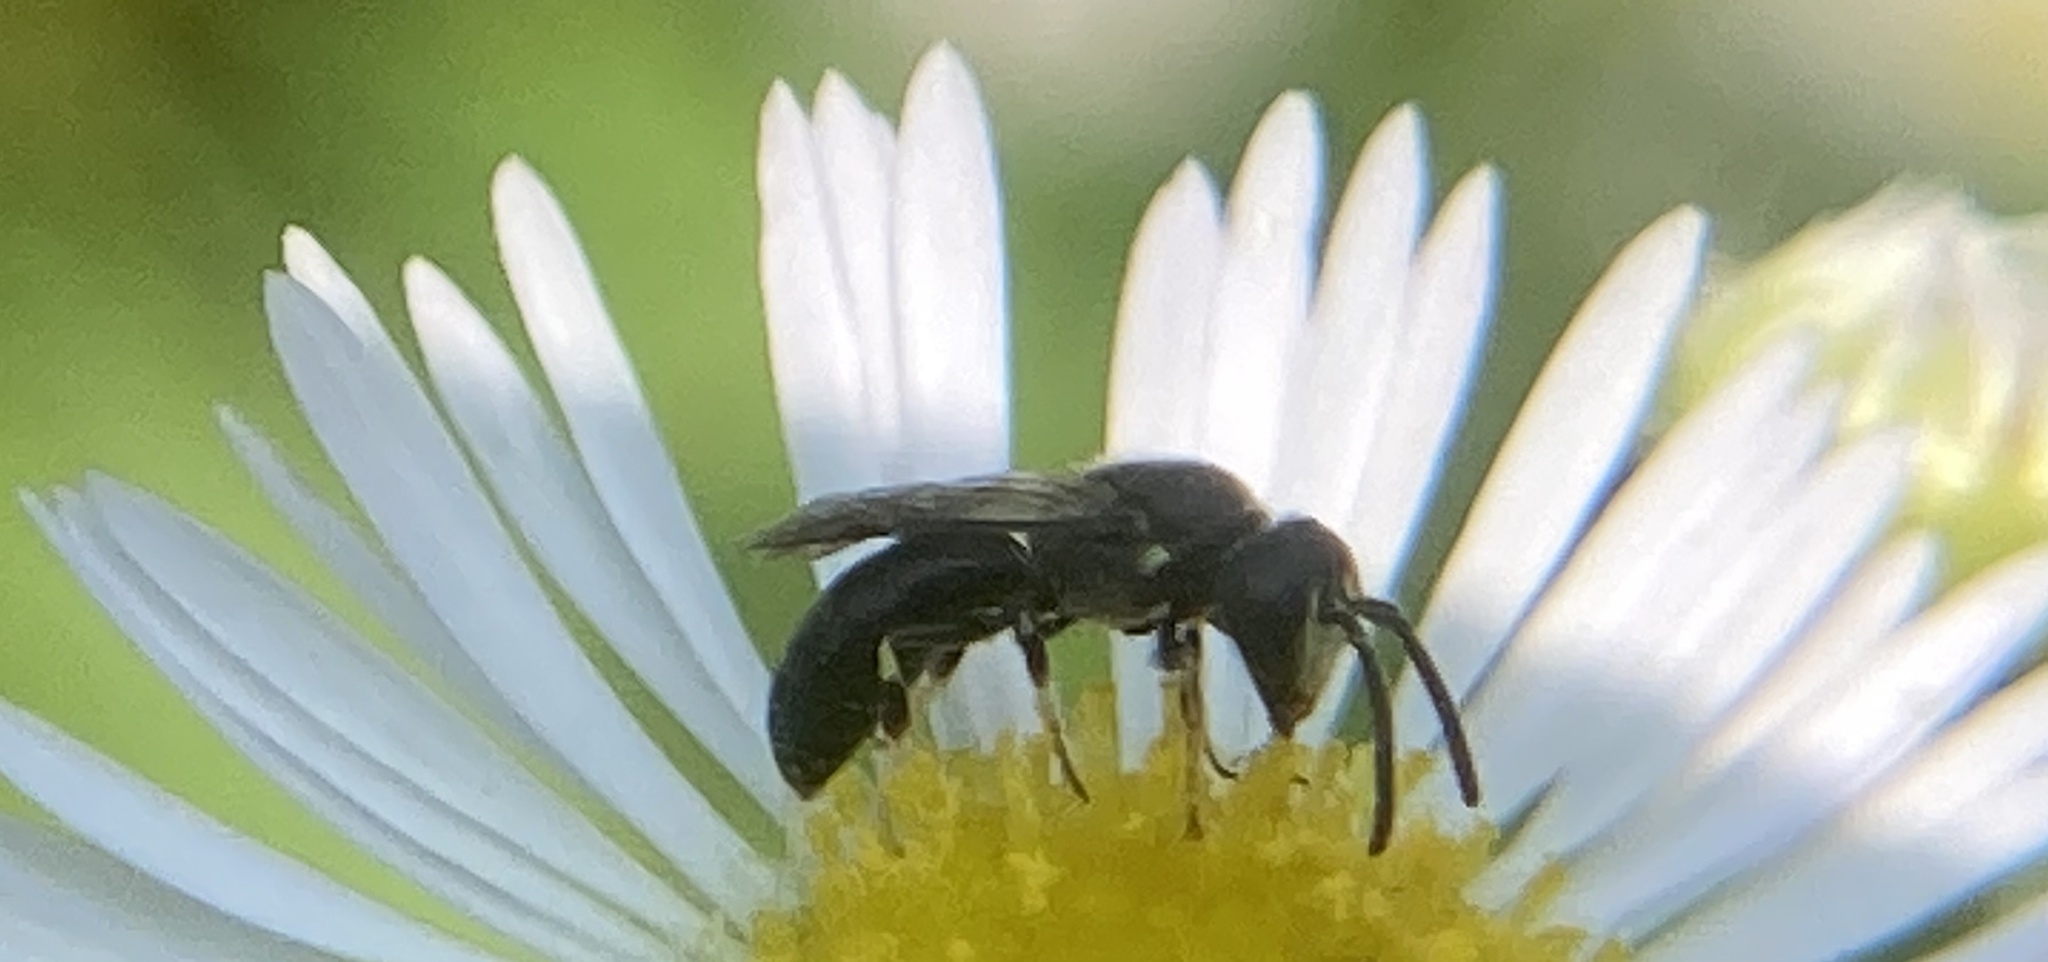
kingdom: Animalia
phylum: Arthropoda
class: Insecta
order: Hymenoptera
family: Colletidae
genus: Hylaeus
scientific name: Hylaeus mesillae
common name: Mesilla masked bee
